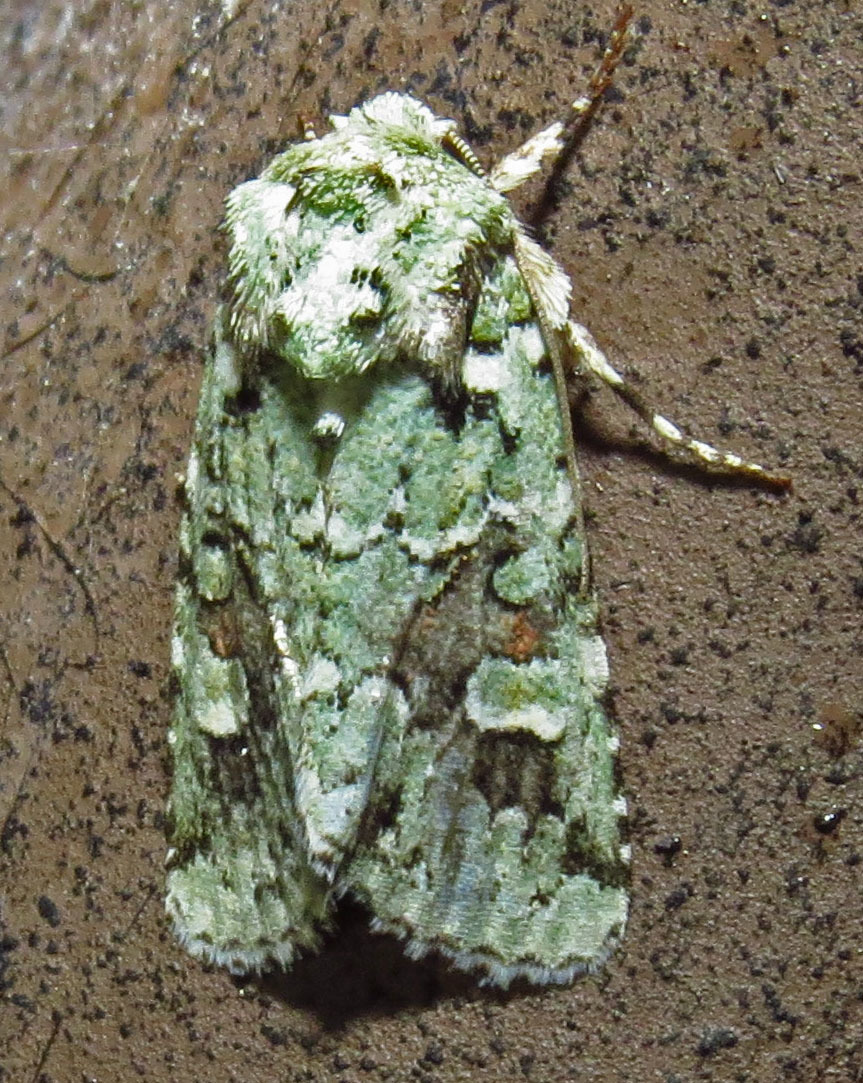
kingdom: Animalia
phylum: Arthropoda
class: Insecta
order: Lepidoptera
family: Noctuidae
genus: Lacinipolia
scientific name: Lacinipolia laudabilis
